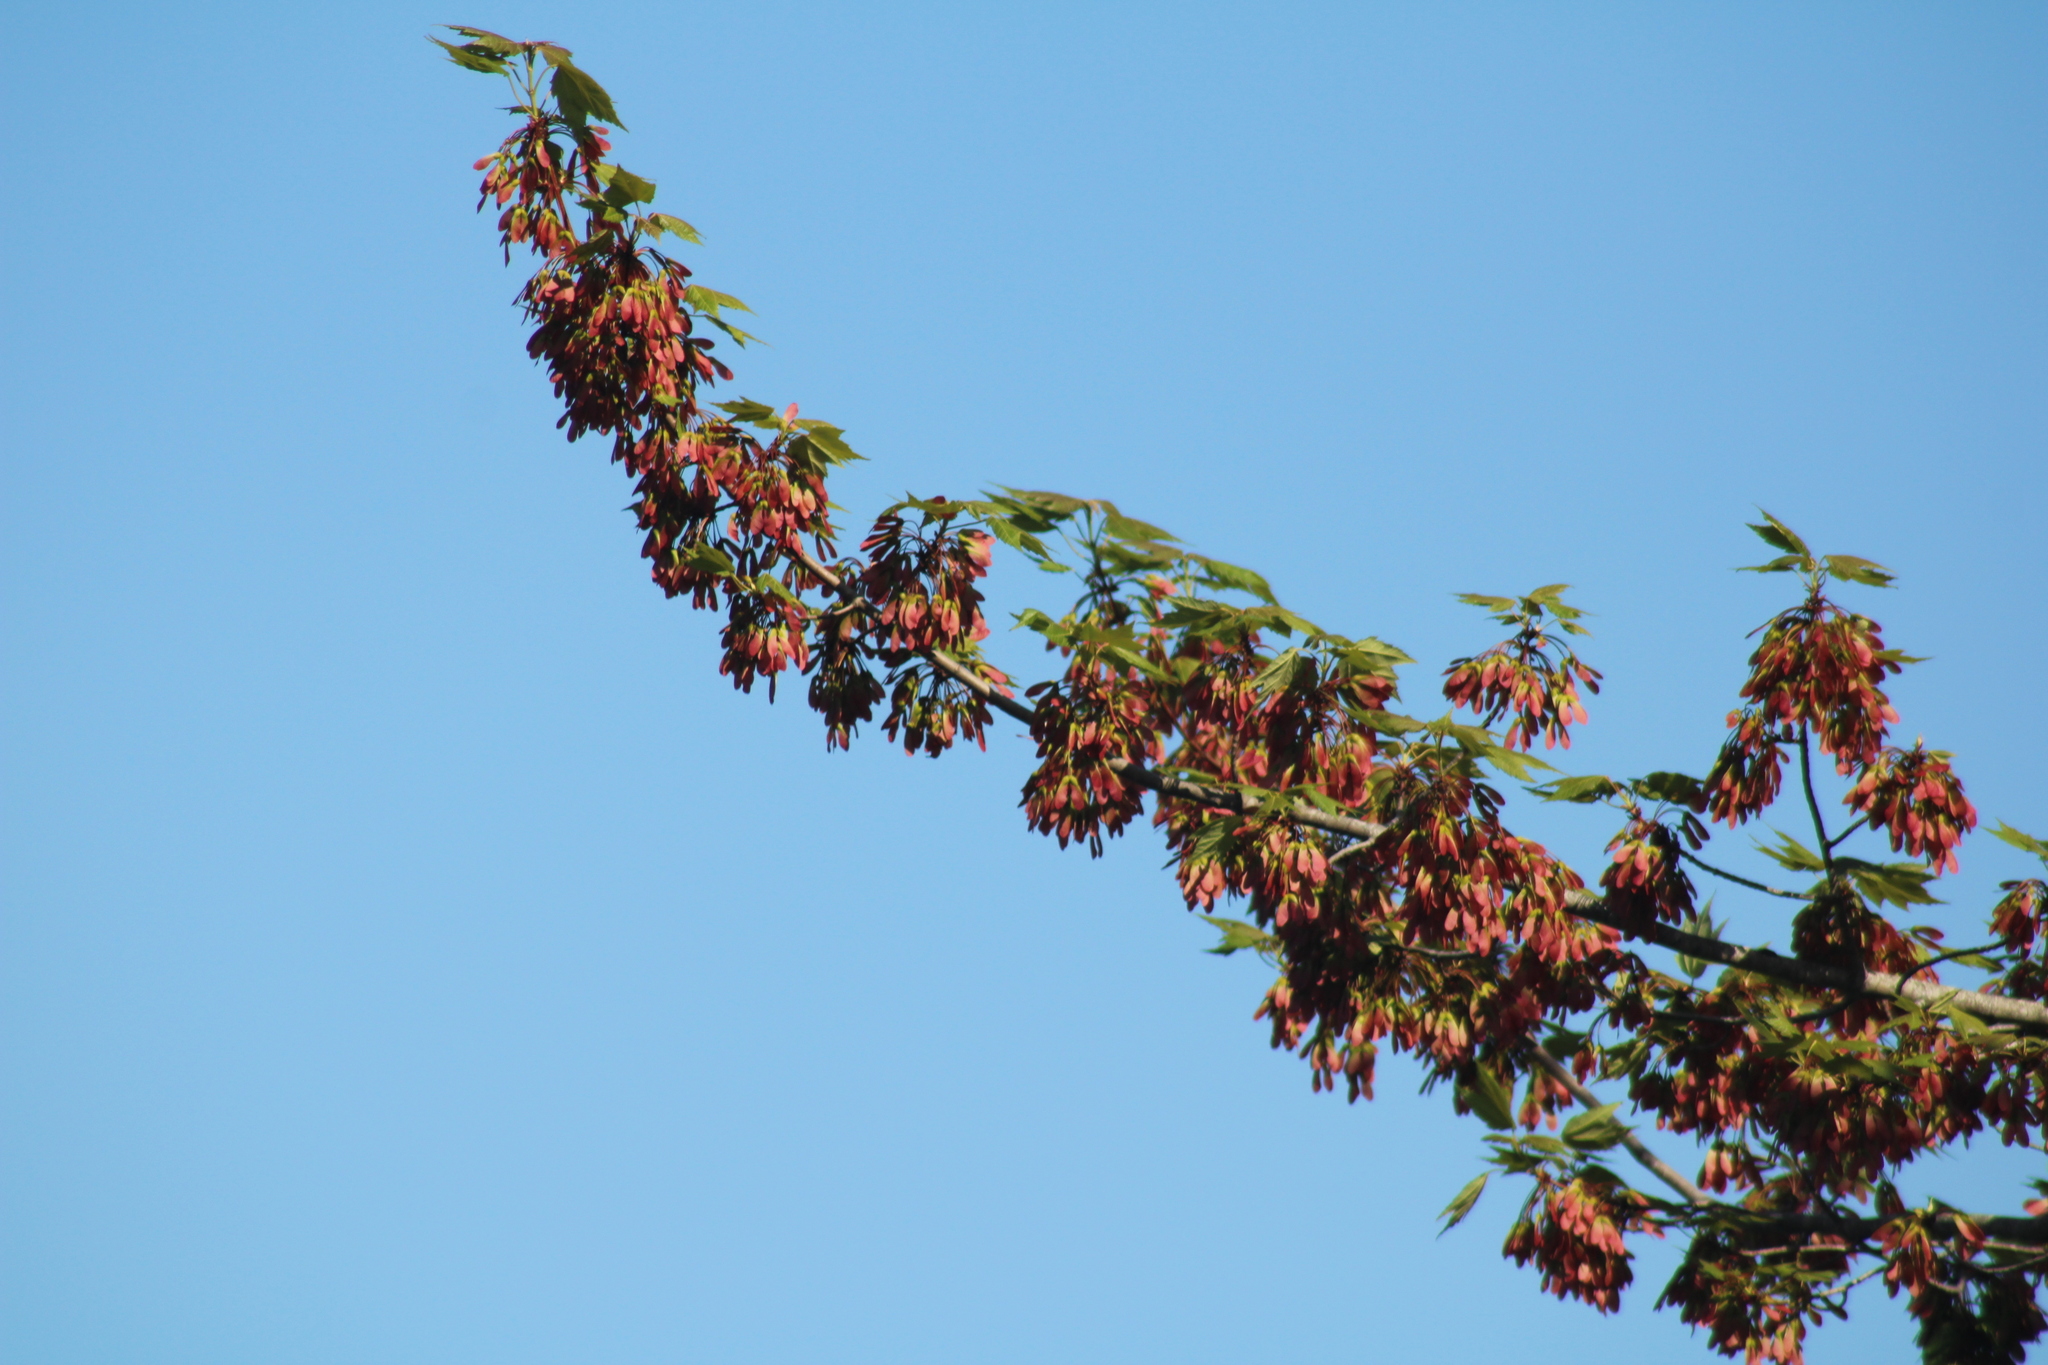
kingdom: Plantae
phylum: Tracheophyta
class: Magnoliopsida
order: Sapindales
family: Sapindaceae
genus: Acer
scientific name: Acer rubrum
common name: Red maple
